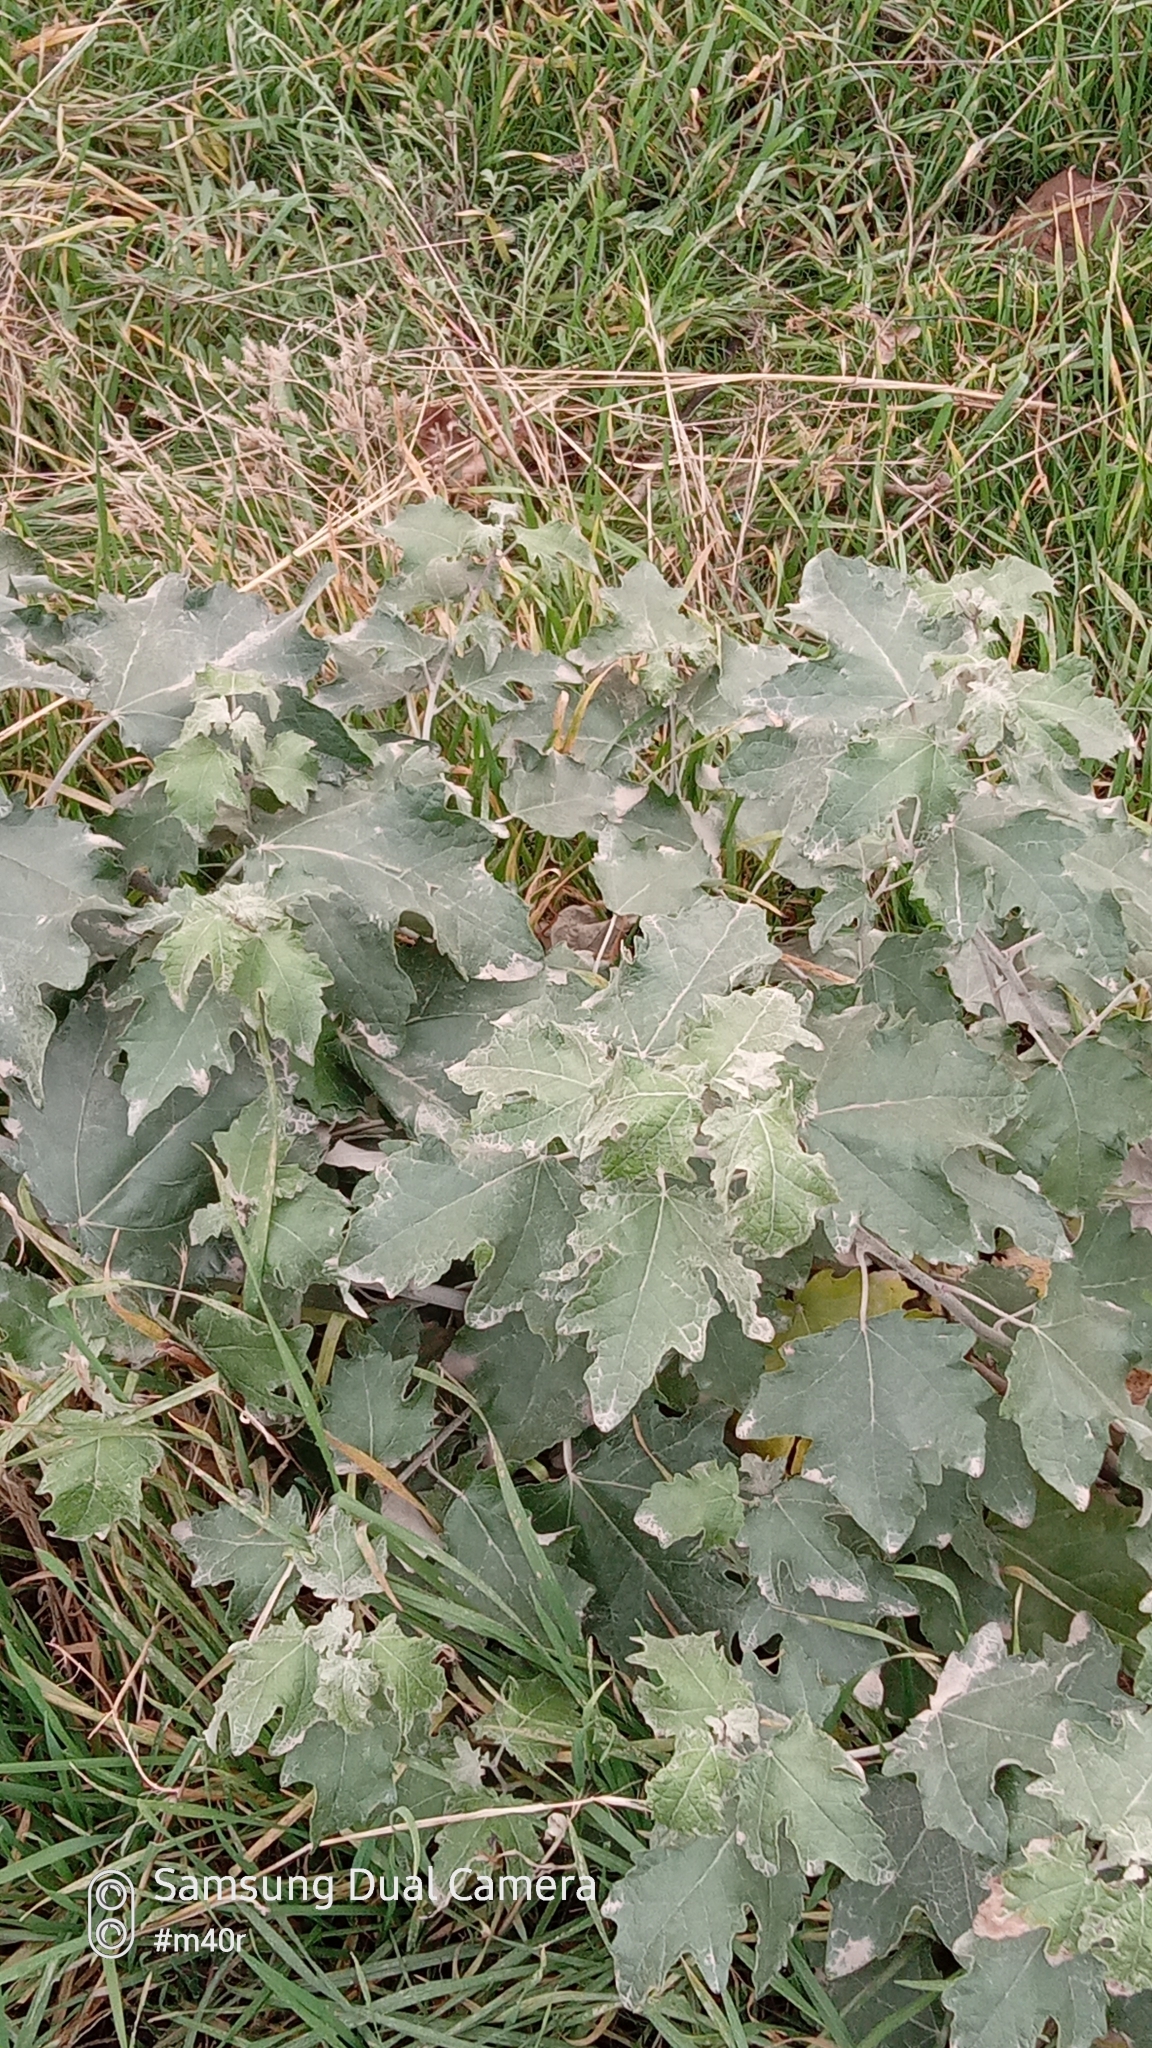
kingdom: Plantae
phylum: Tracheophyta
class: Magnoliopsida
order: Malpighiales
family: Salicaceae
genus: Populus
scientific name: Populus alba
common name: White poplar
